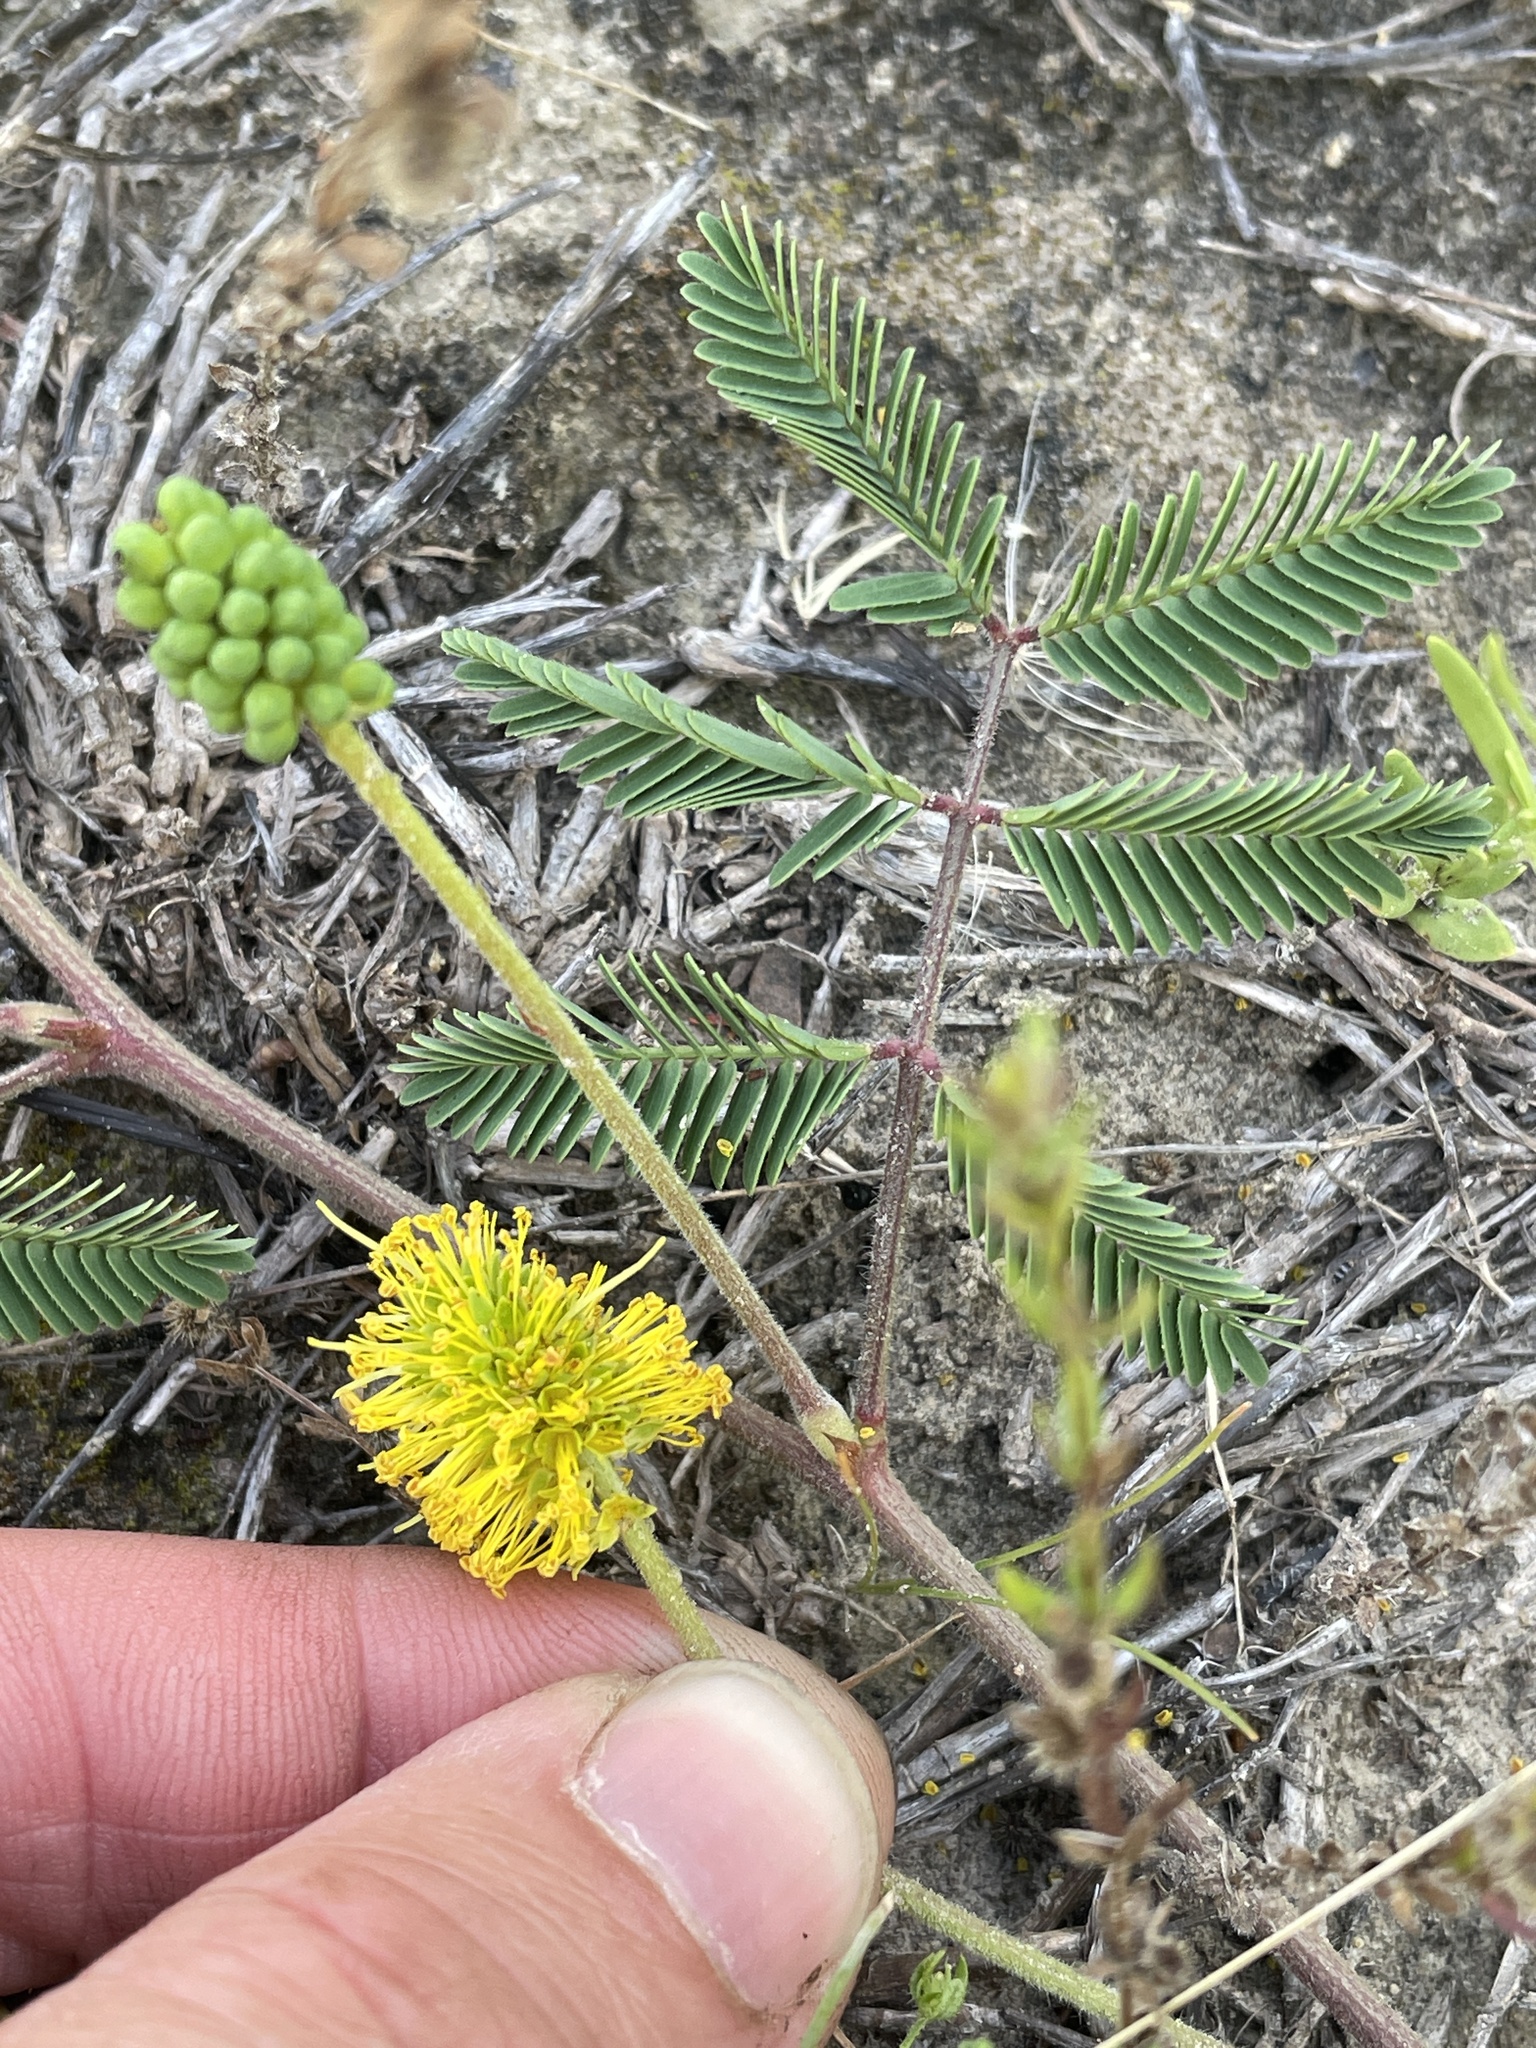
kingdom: Plantae
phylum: Tracheophyta
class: Magnoliopsida
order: Fabales
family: Fabaceae
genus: Neptunia
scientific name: Neptunia lutea
